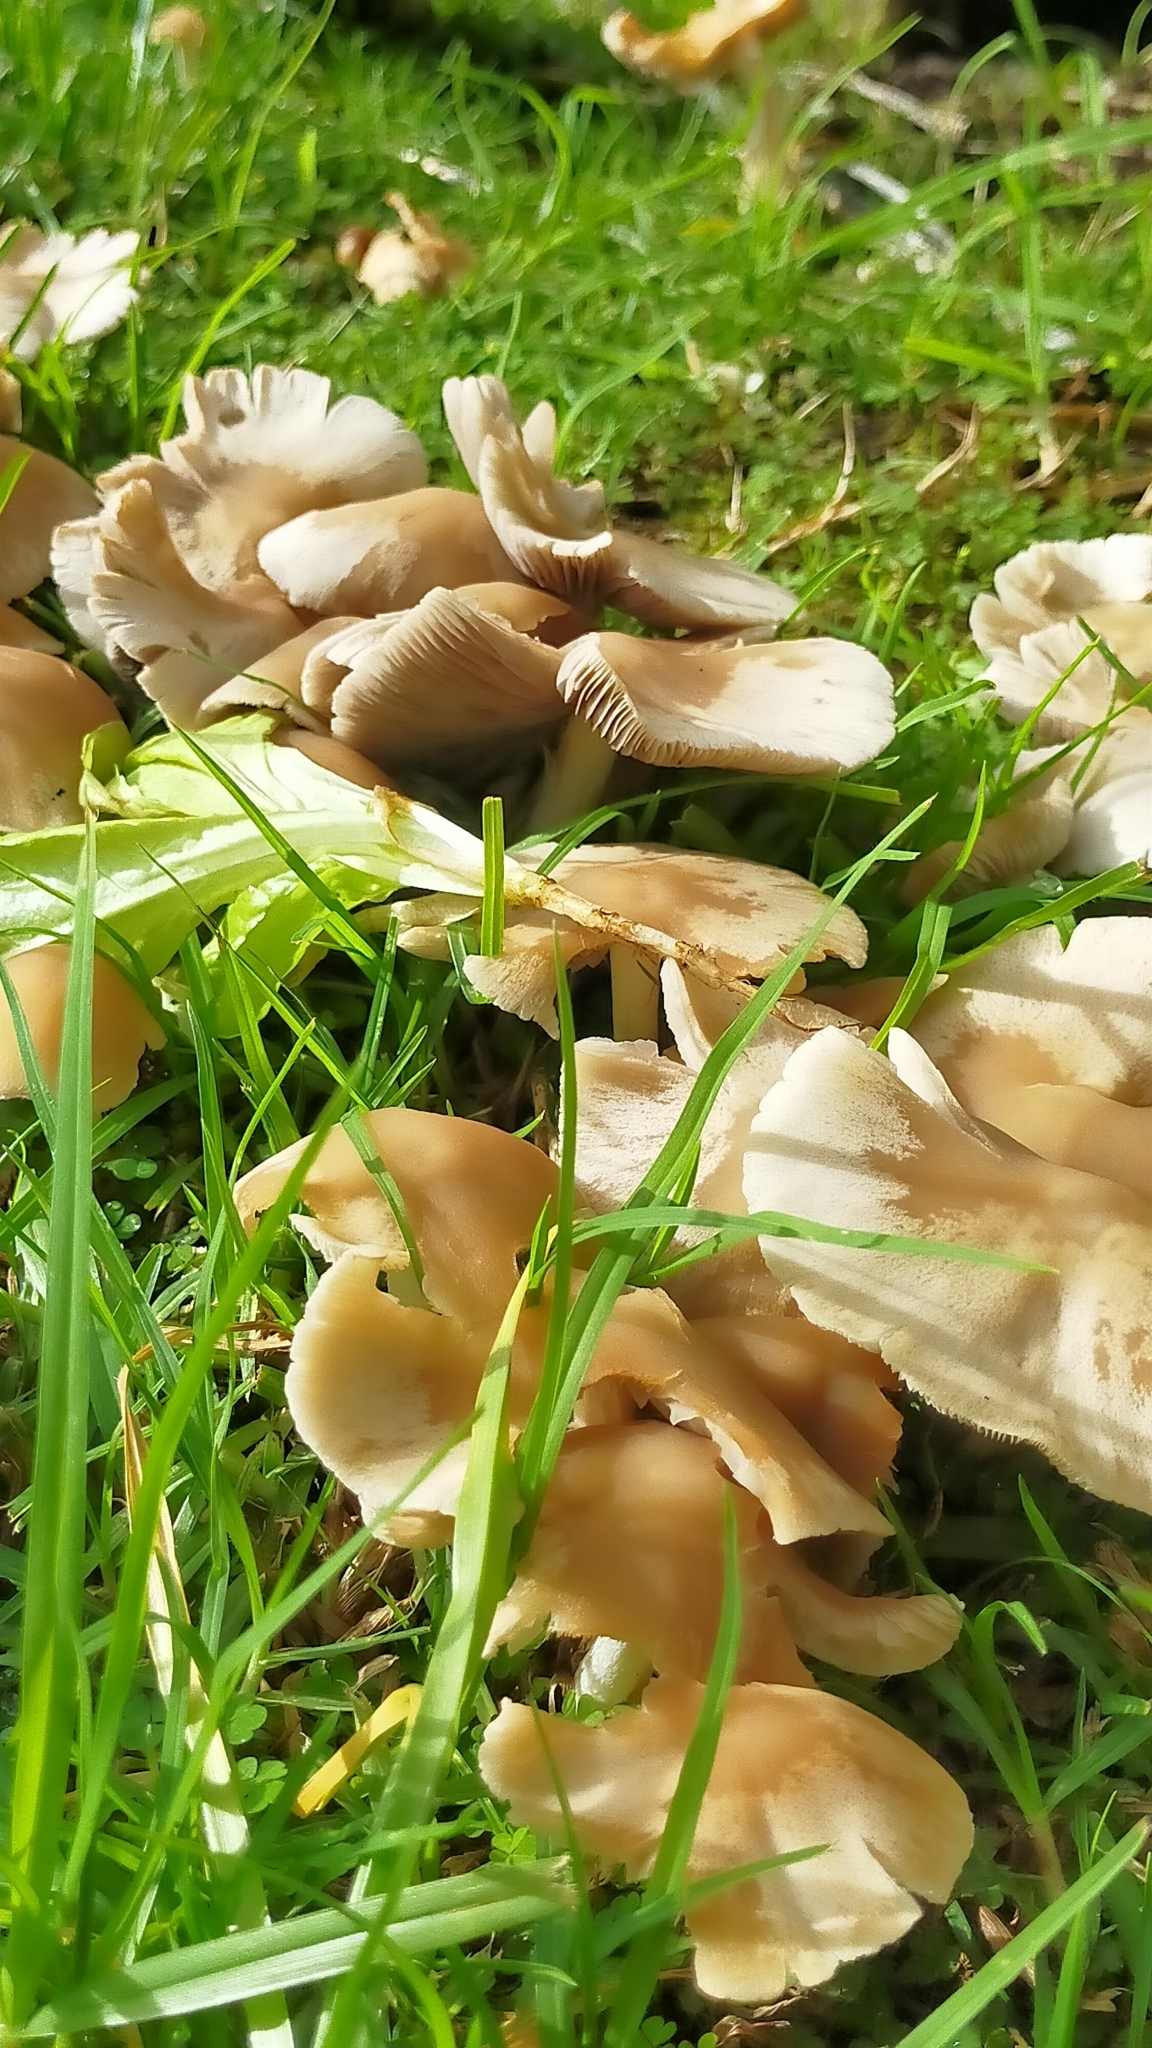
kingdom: Fungi
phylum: Basidiomycota
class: Agaricomycetes
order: Agaricales
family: Psathyrellaceae
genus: Candolleomyces
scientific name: Candolleomyces candolleanus
